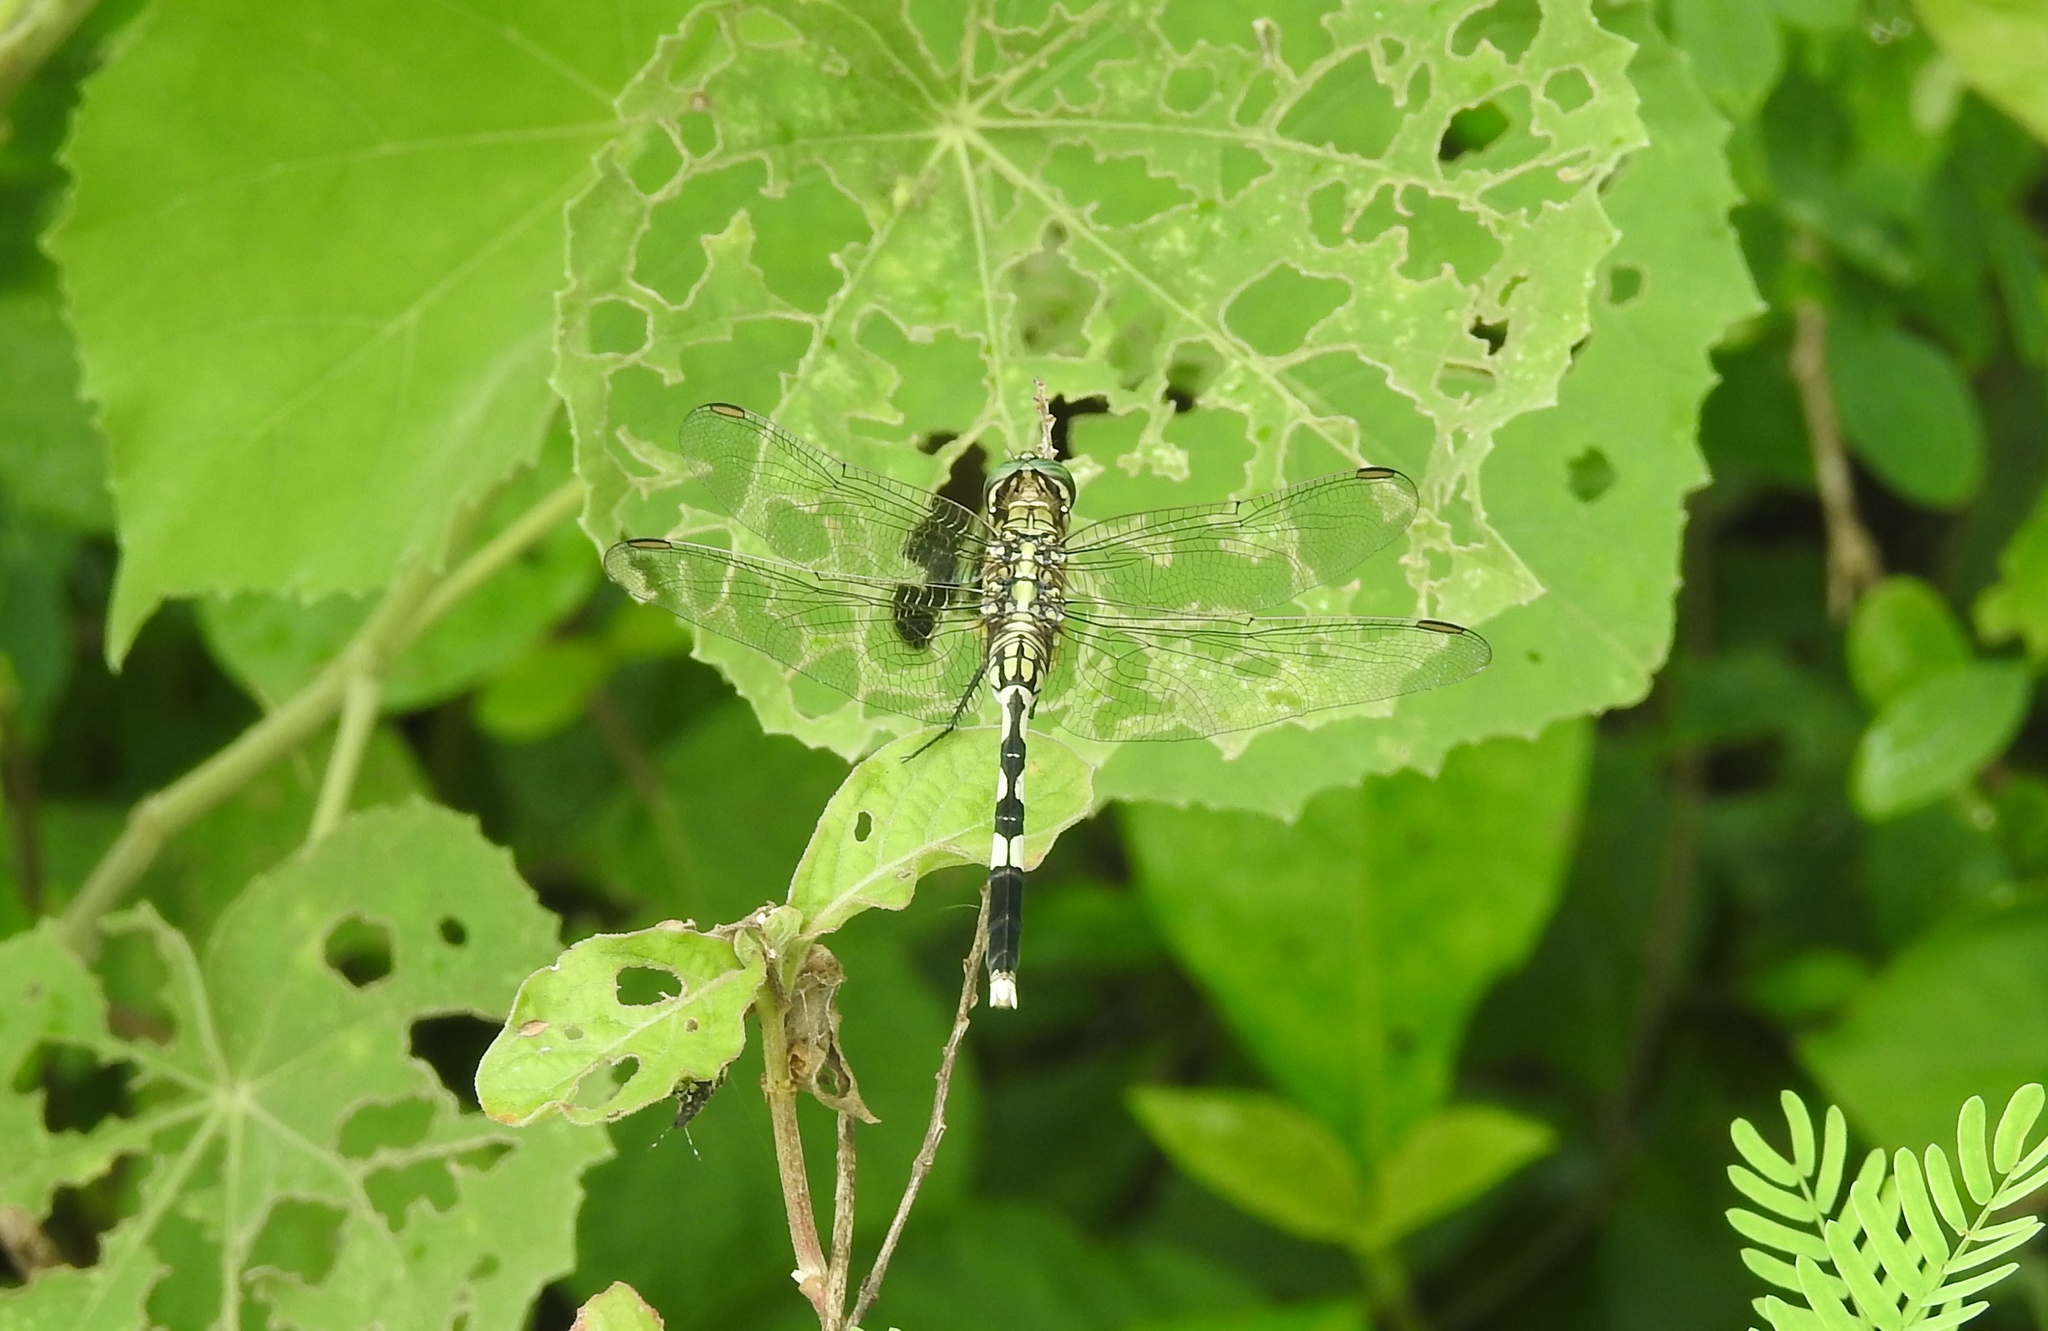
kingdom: Animalia
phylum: Arthropoda
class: Insecta
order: Odonata
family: Libellulidae
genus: Orthetrum
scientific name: Orthetrum sabina
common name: Slender skimmer
